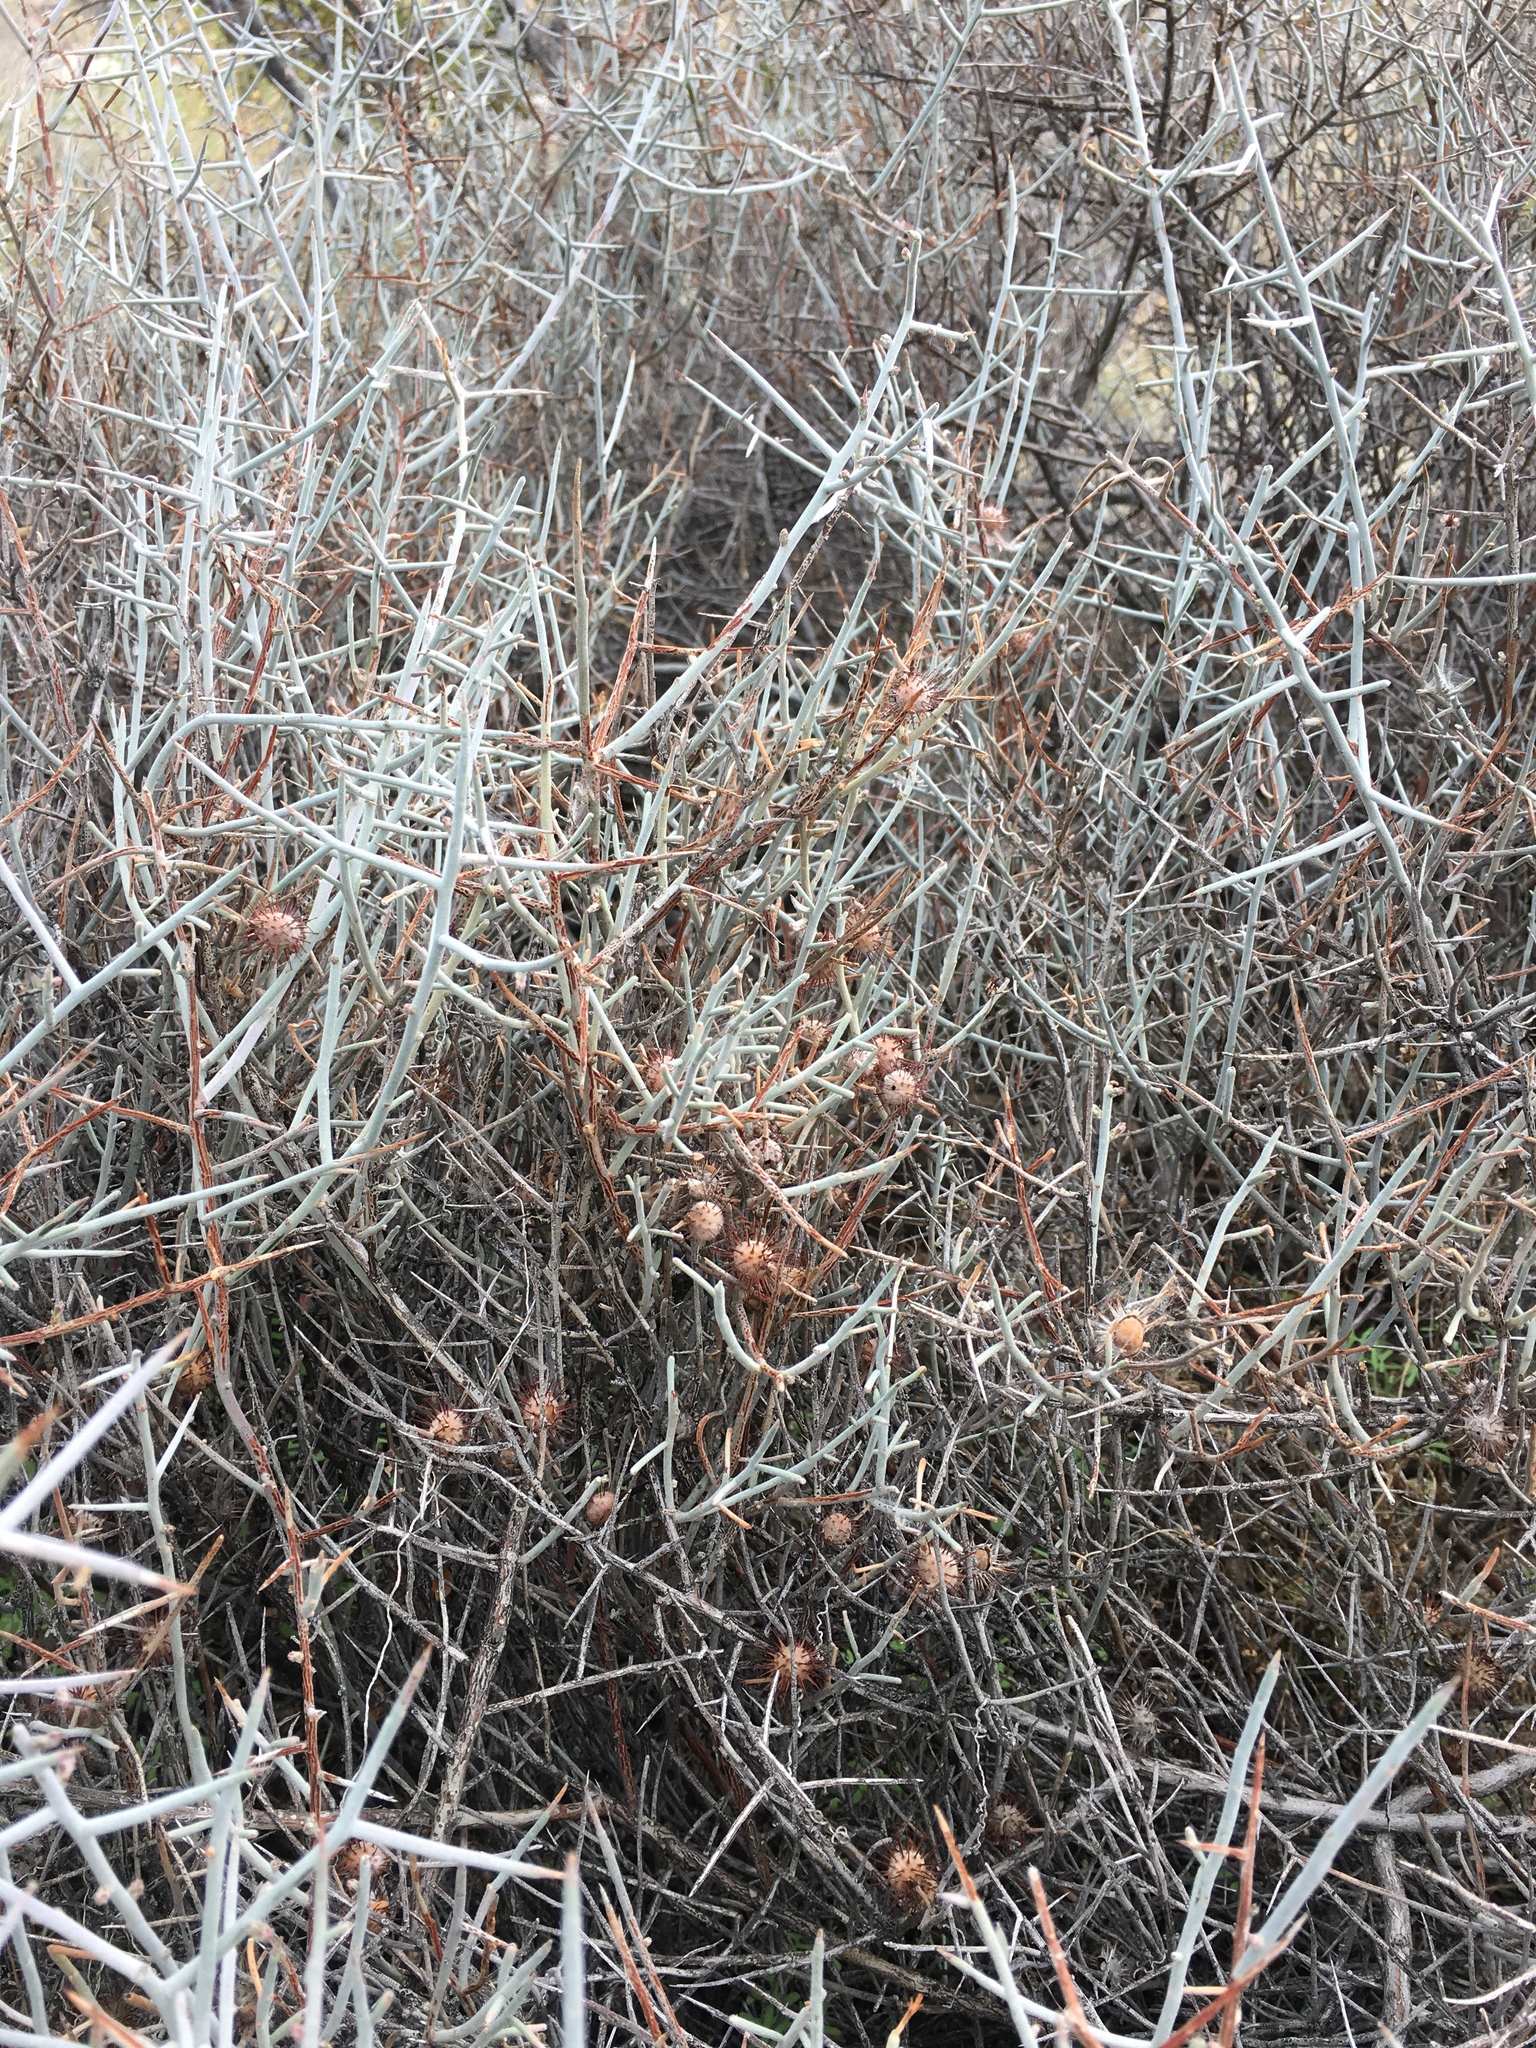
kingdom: Plantae
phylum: Tracheophyta
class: Magnoliopsida
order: Zygophyllales
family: Krameriaceae
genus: Krameria
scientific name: Krameria bicolor
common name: White ratany
